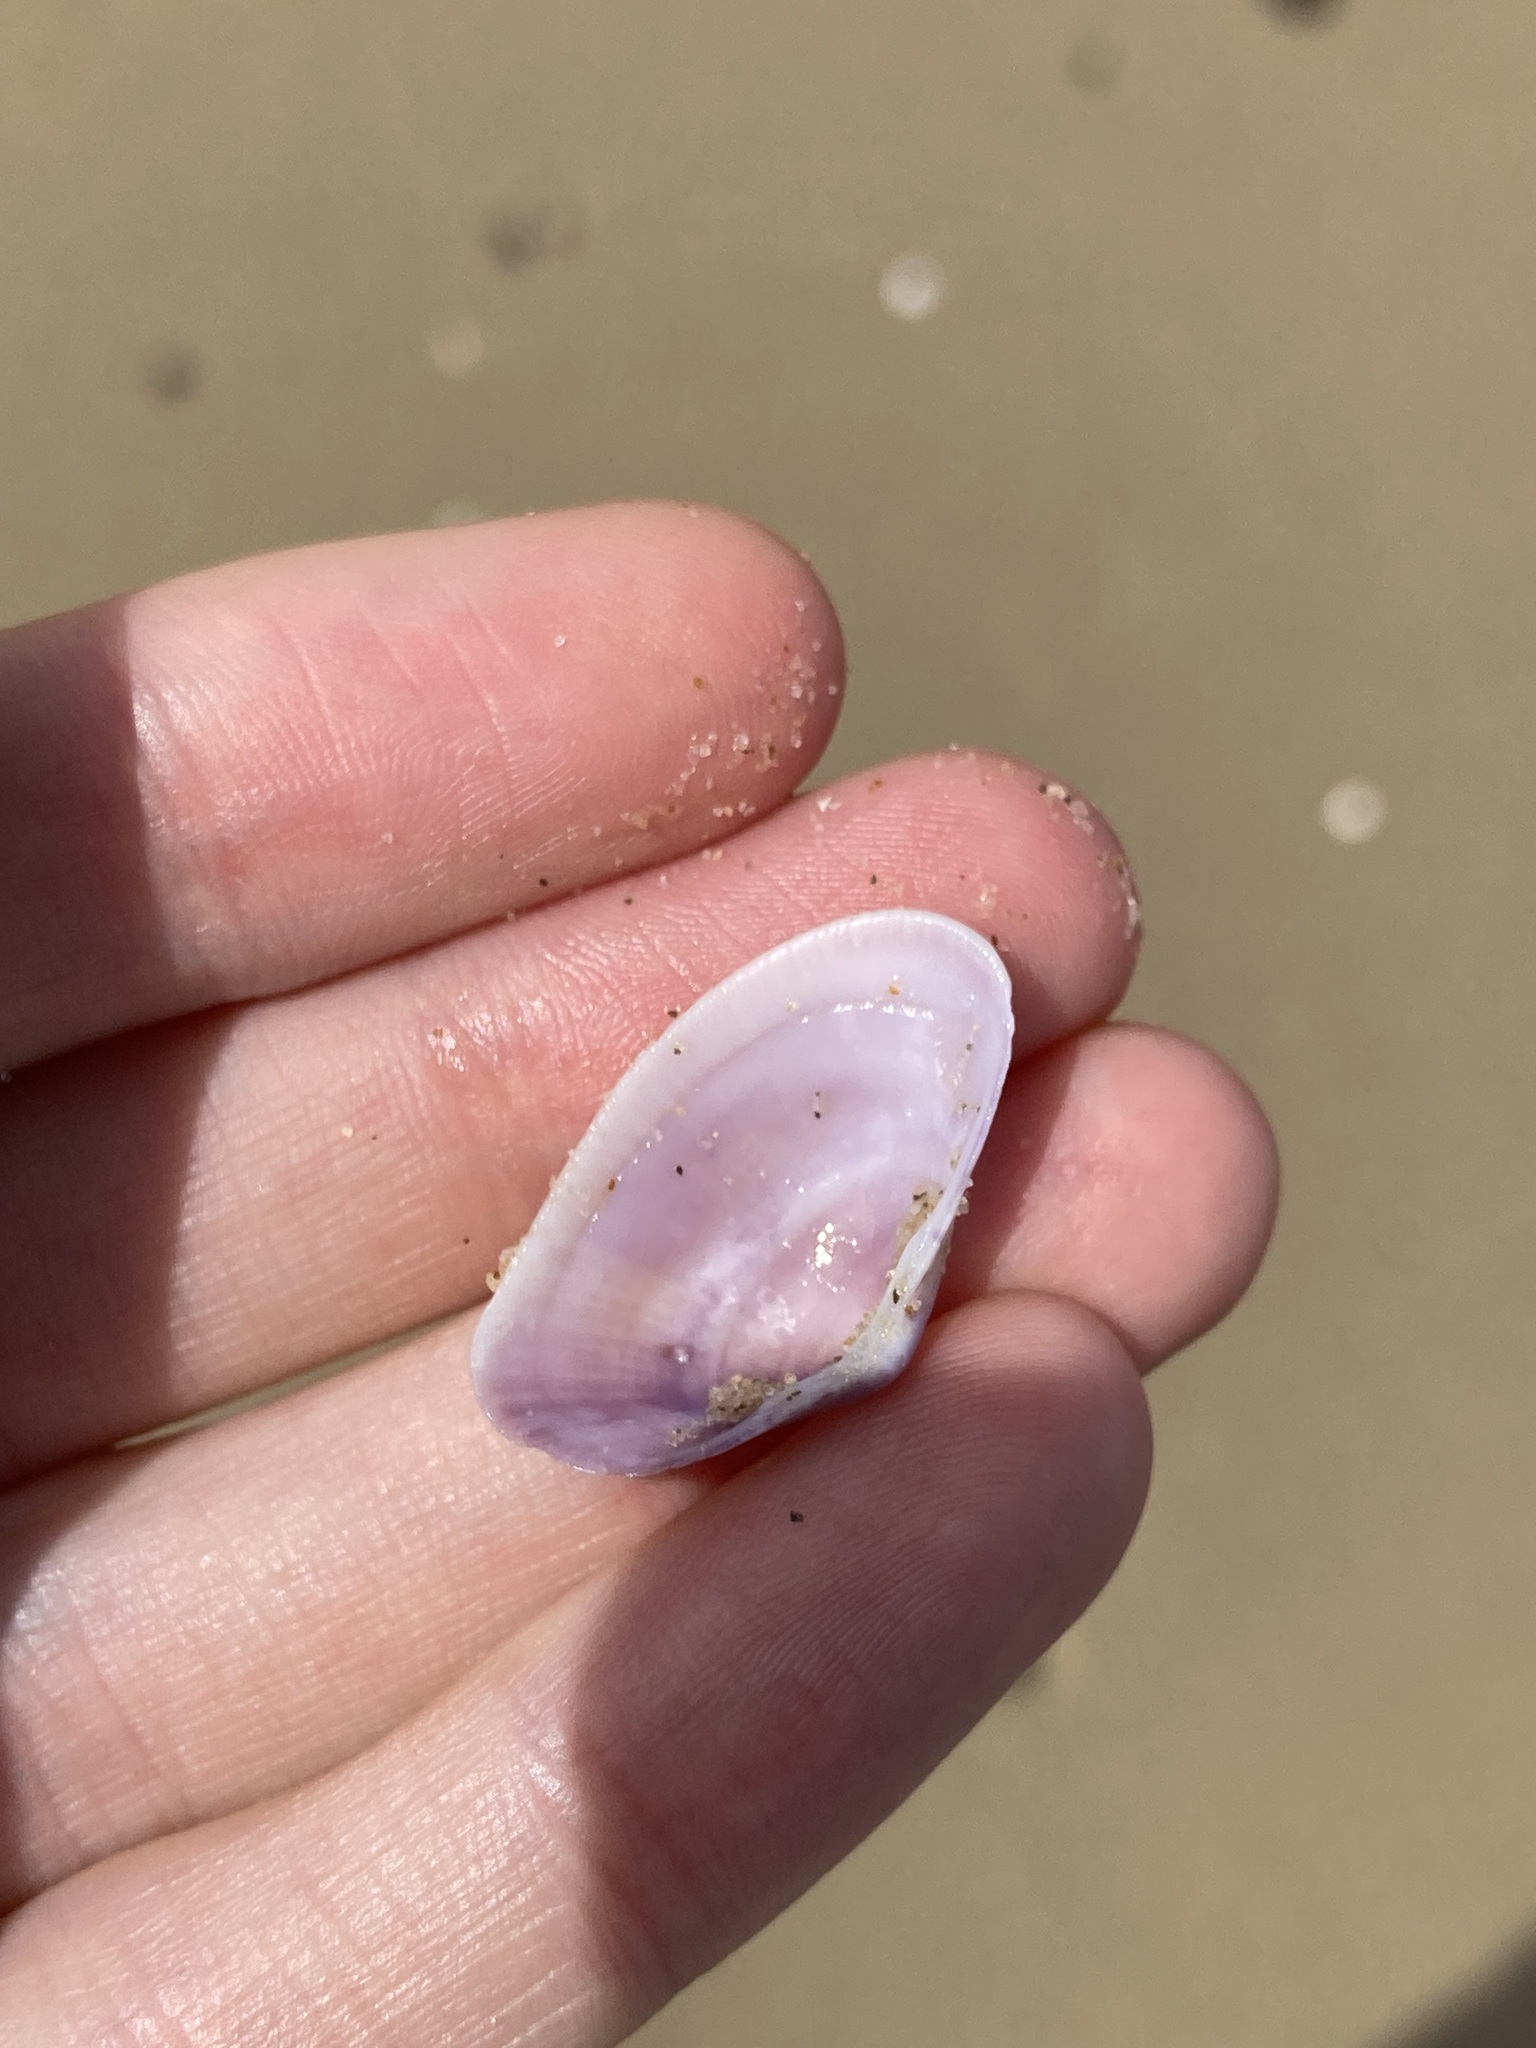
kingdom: Animalia
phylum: Mollusca
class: Bivalvia
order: Venerida
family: Hemidonacidae
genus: Hemidonax
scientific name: Hemidonax dactylus
